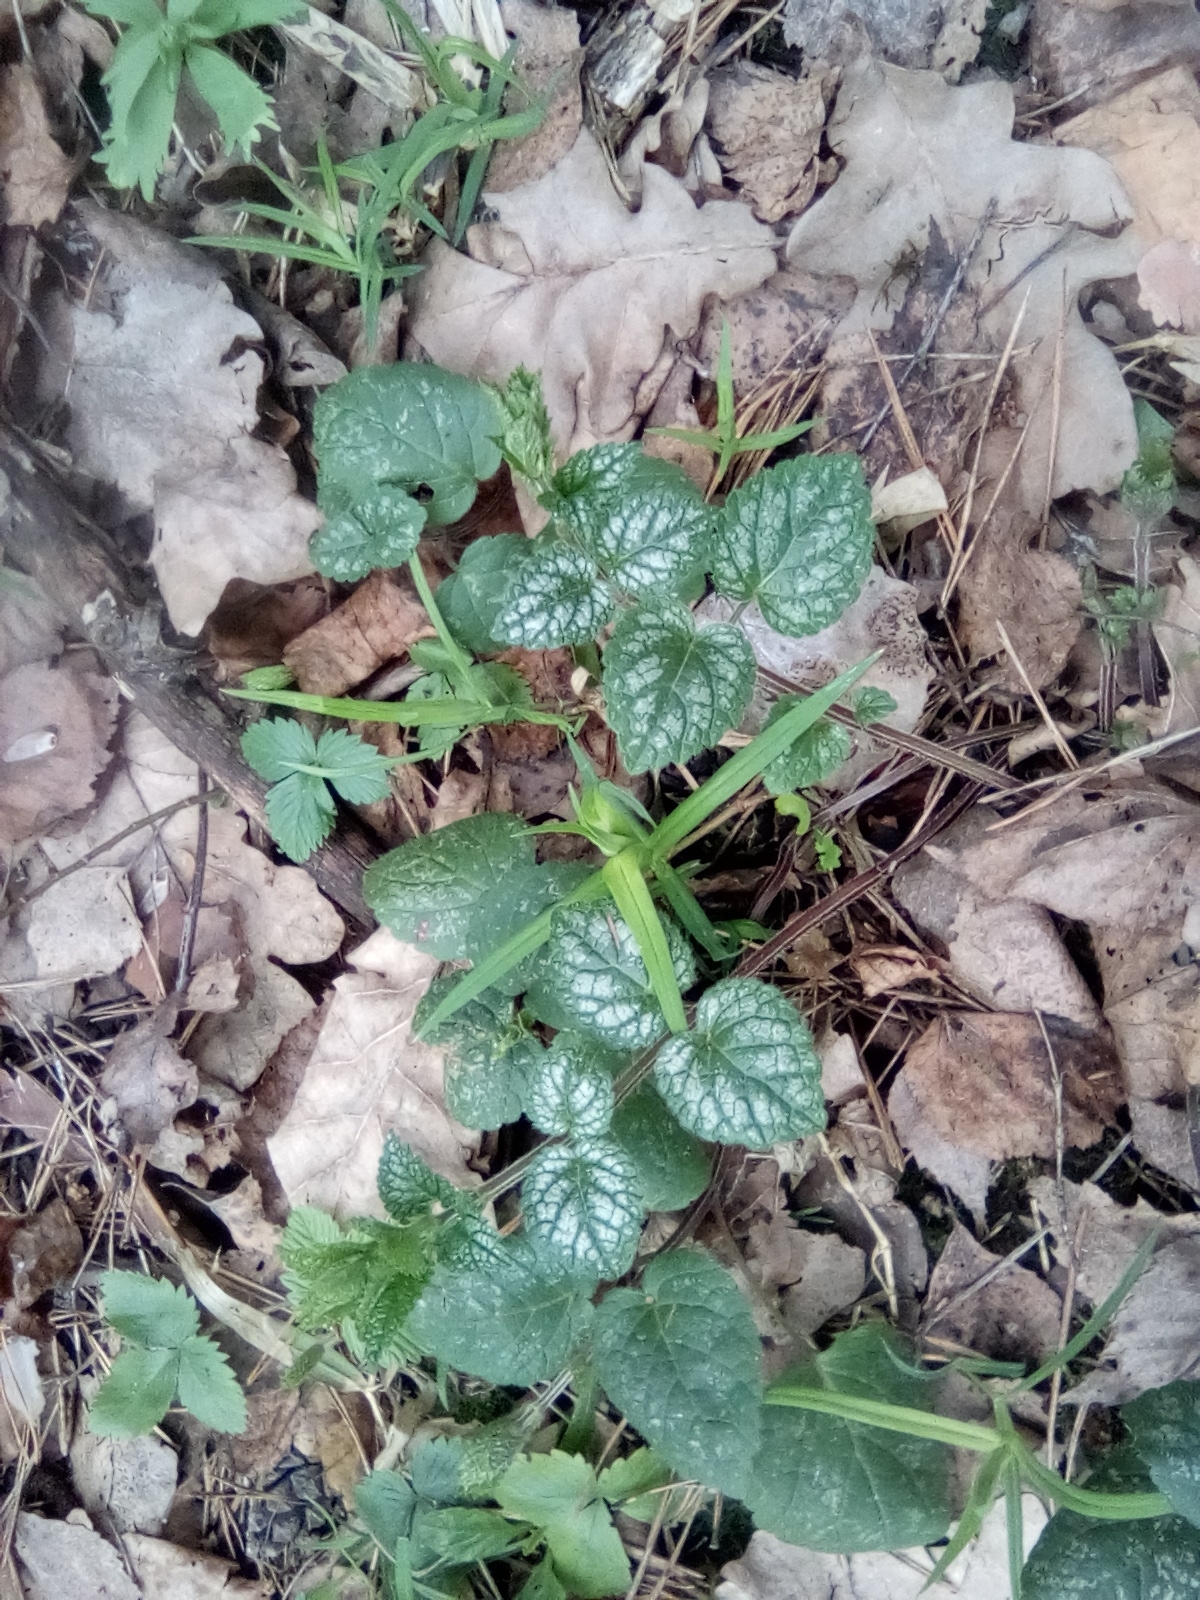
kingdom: Plantae
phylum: Tracheophyta
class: Magnoliopsida
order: Lamiales
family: Lamiaceae
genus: Lamium
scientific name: Lamium galeobdolon
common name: Yellow archangel
